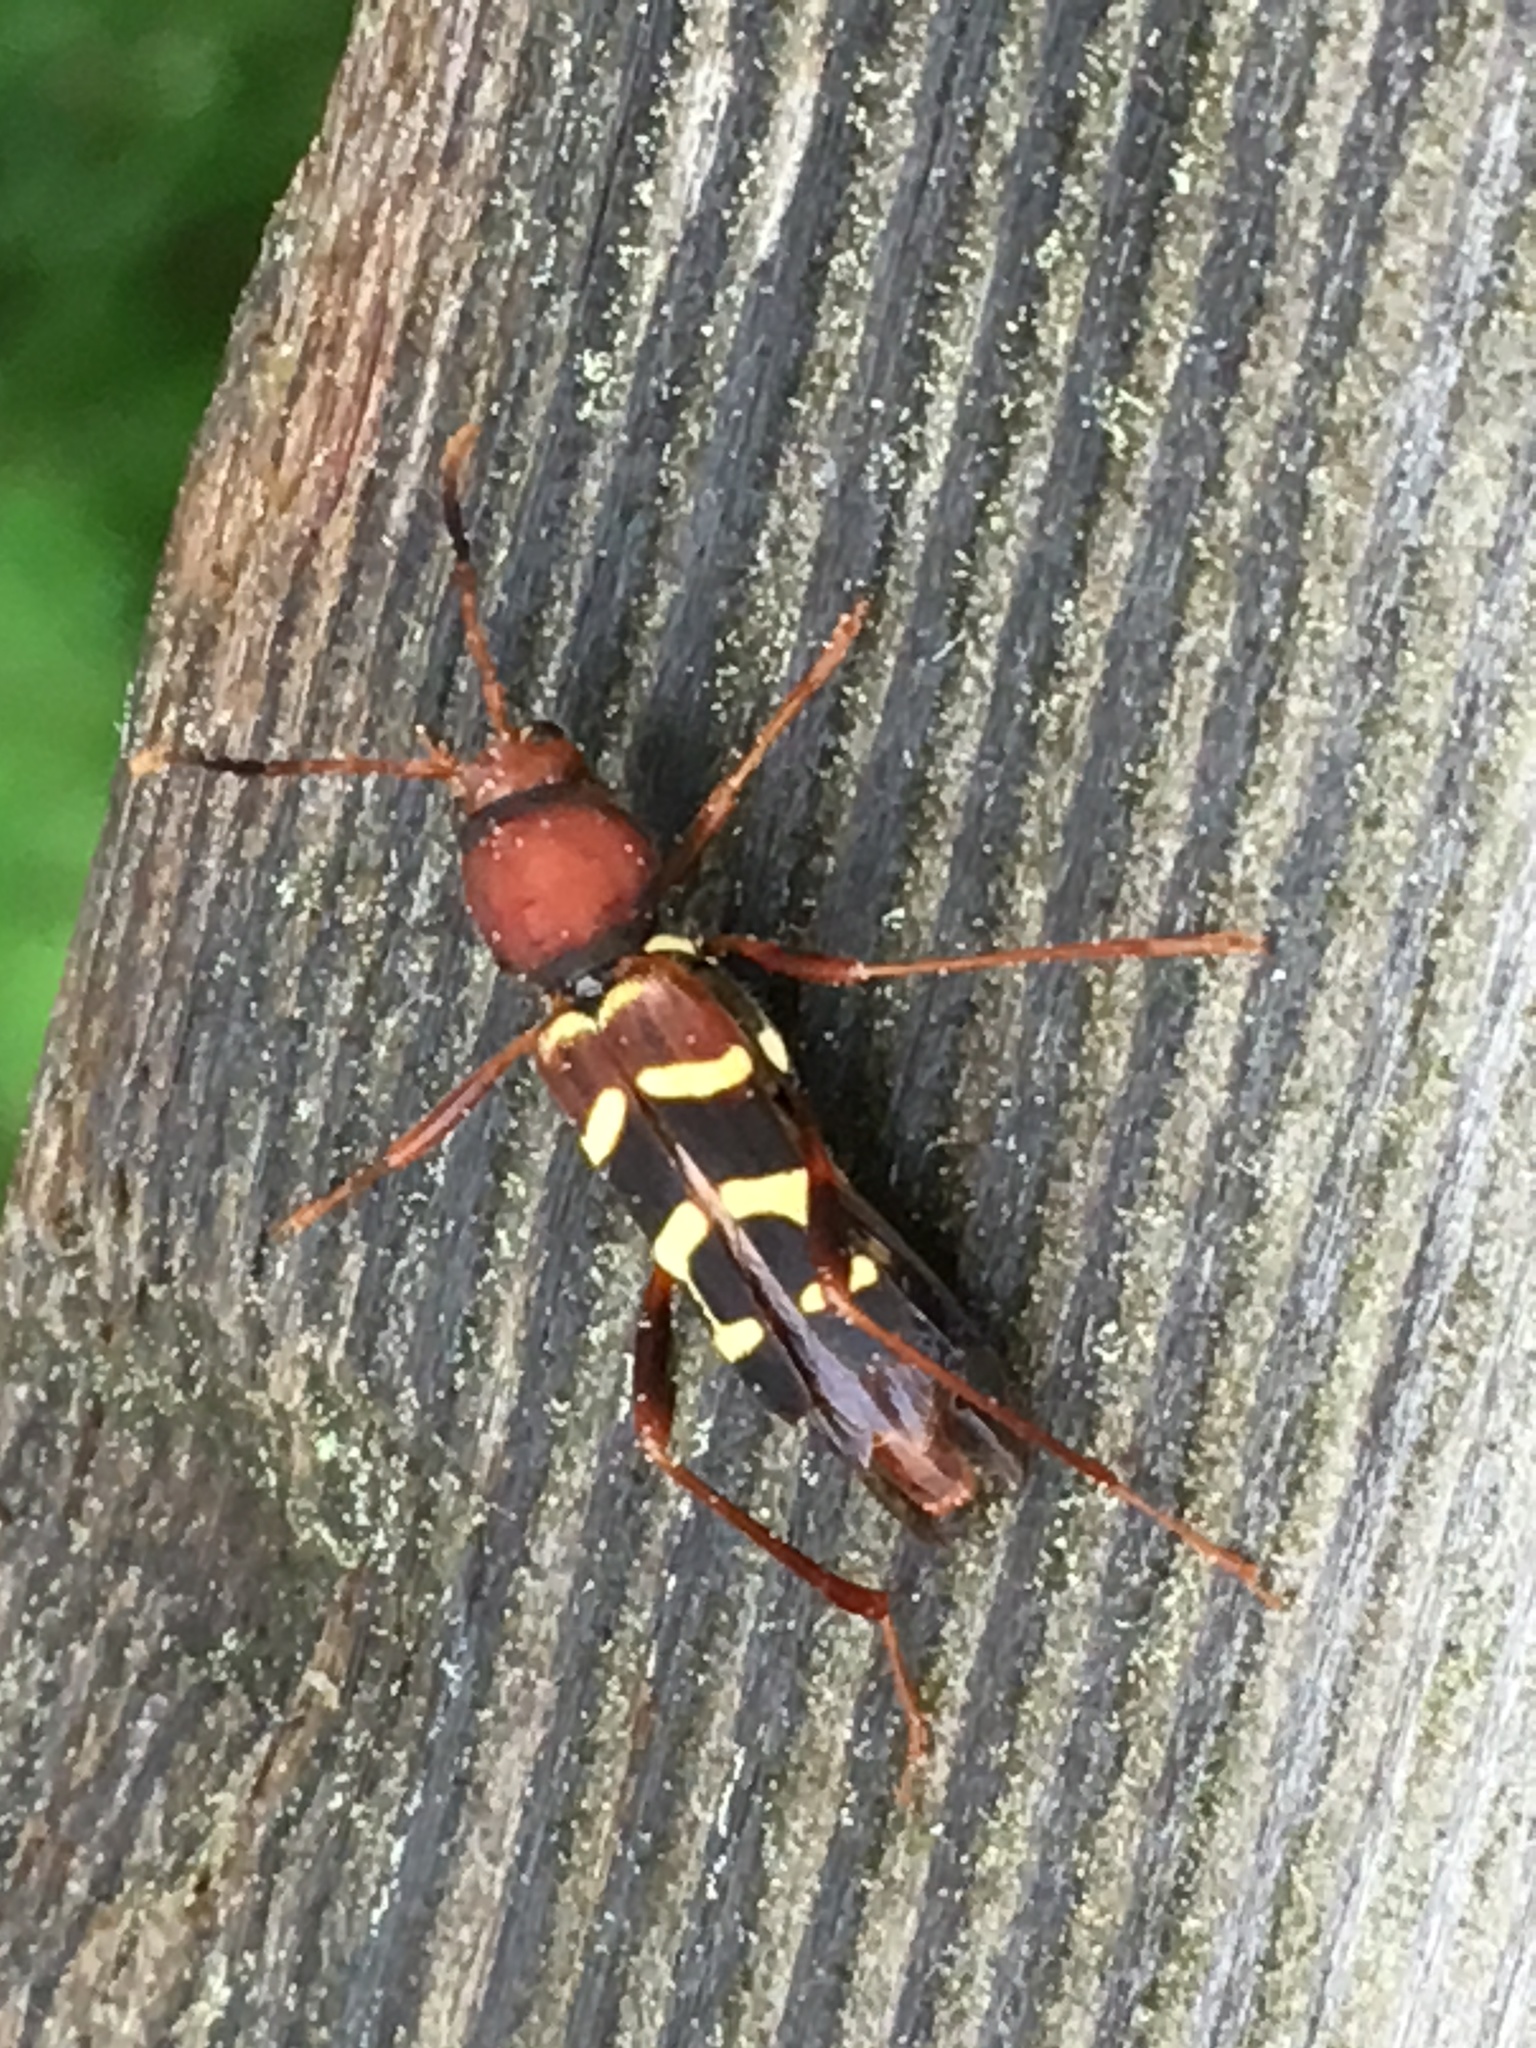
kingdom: Animalia
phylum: Arthropoda
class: Insecta
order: Coleoptera
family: Cerambycidae
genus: Neoclytus
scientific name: Neoclytus acuminatus
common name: Read-headed ash borer
